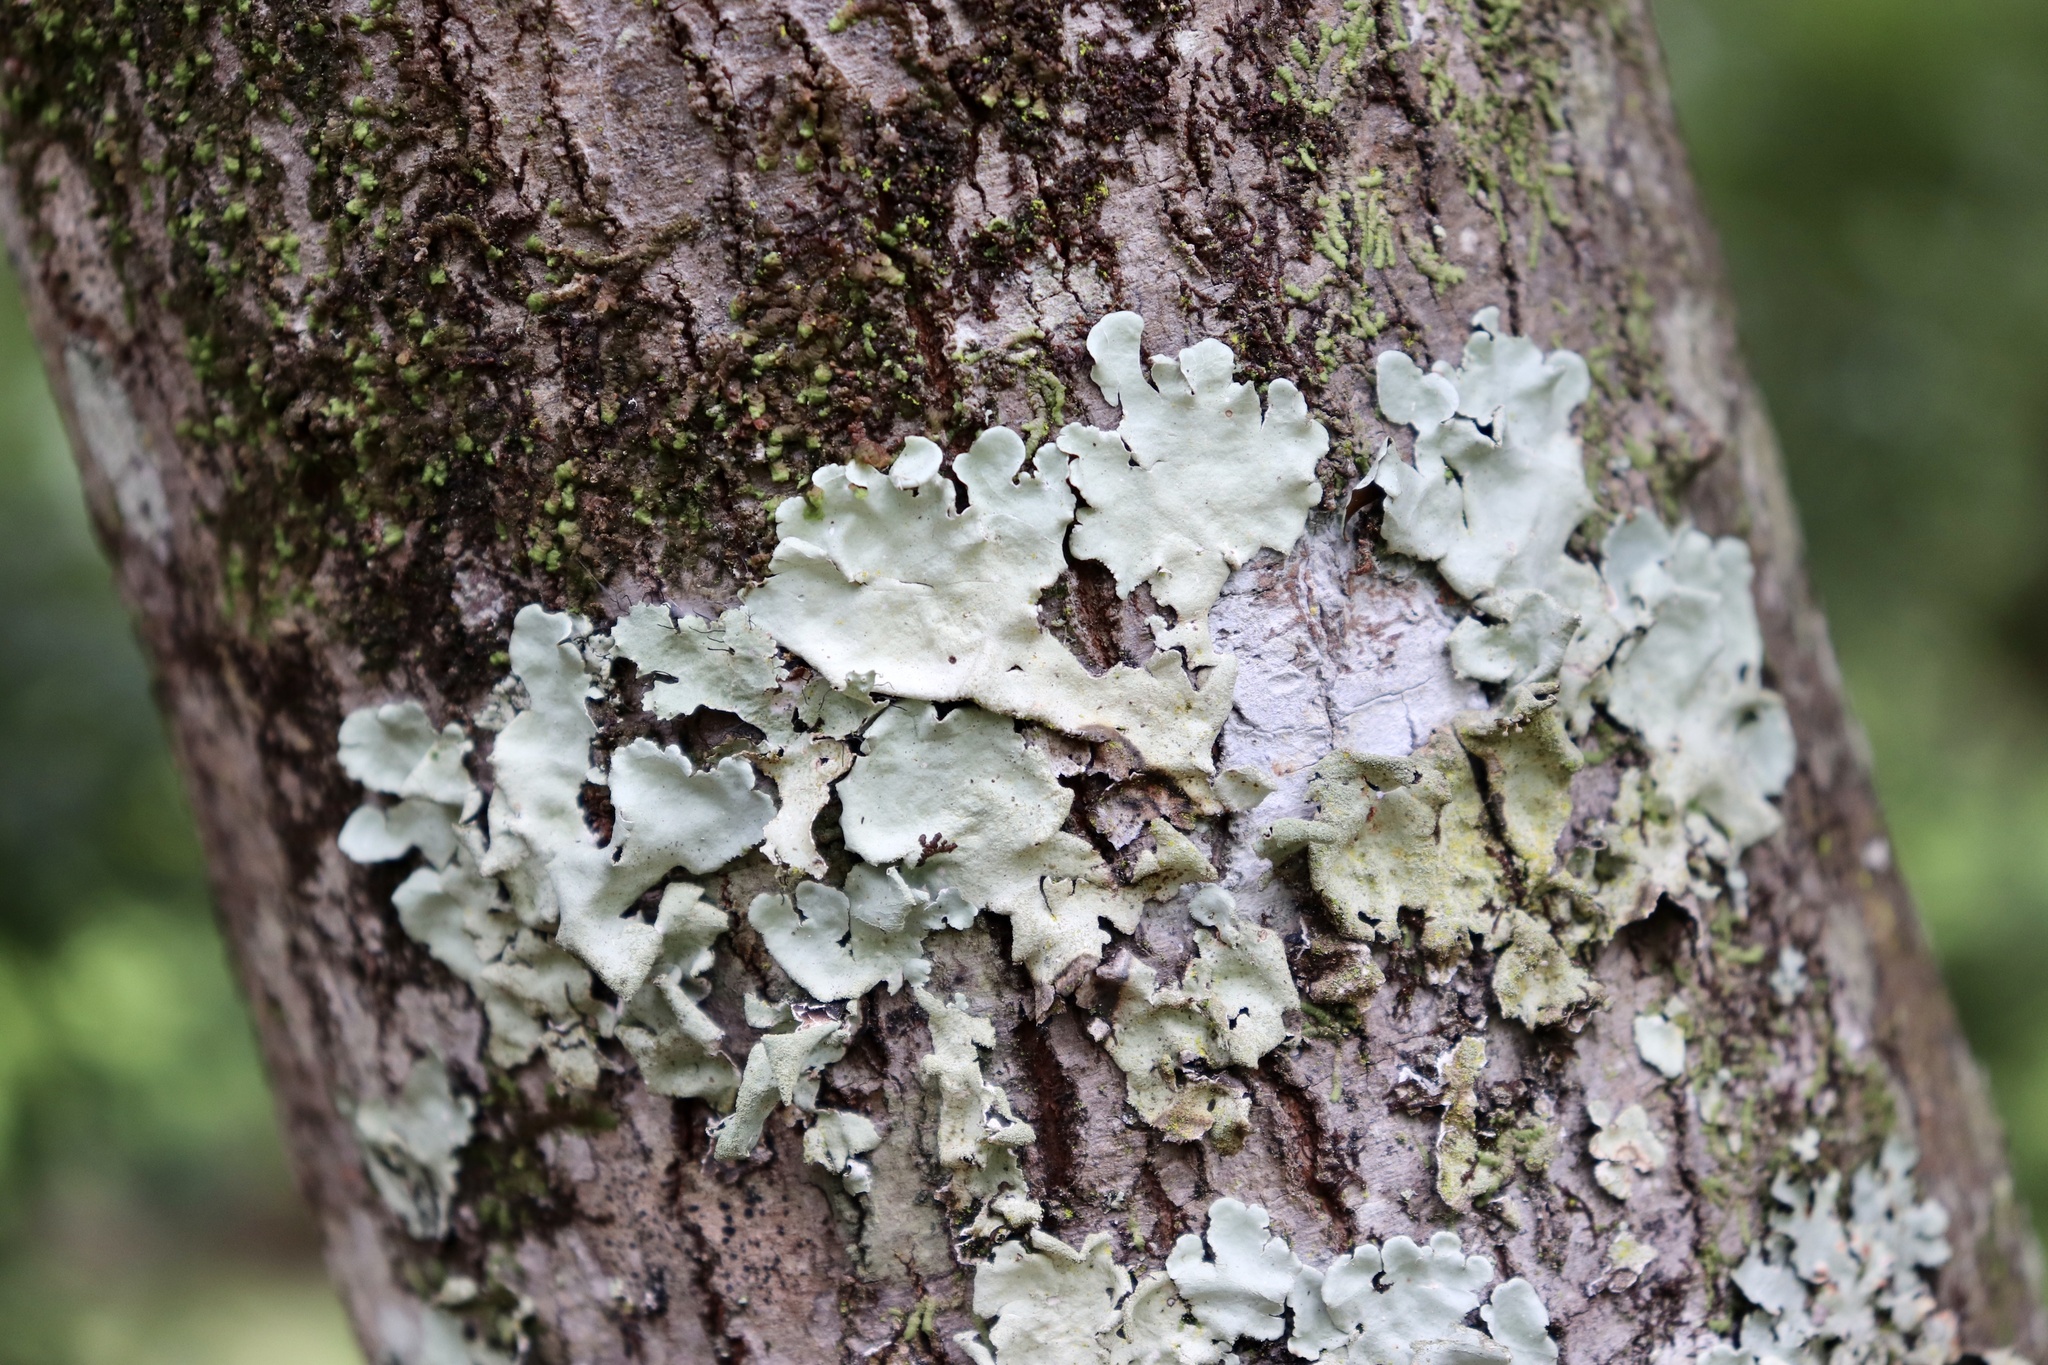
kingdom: Fungi
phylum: Ascomycota
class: Lecanoromycetes
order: Lecanorales
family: Parmeliaceae
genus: Parmotrema
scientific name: Parmotrema tinctorum
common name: Old gray ruffles
